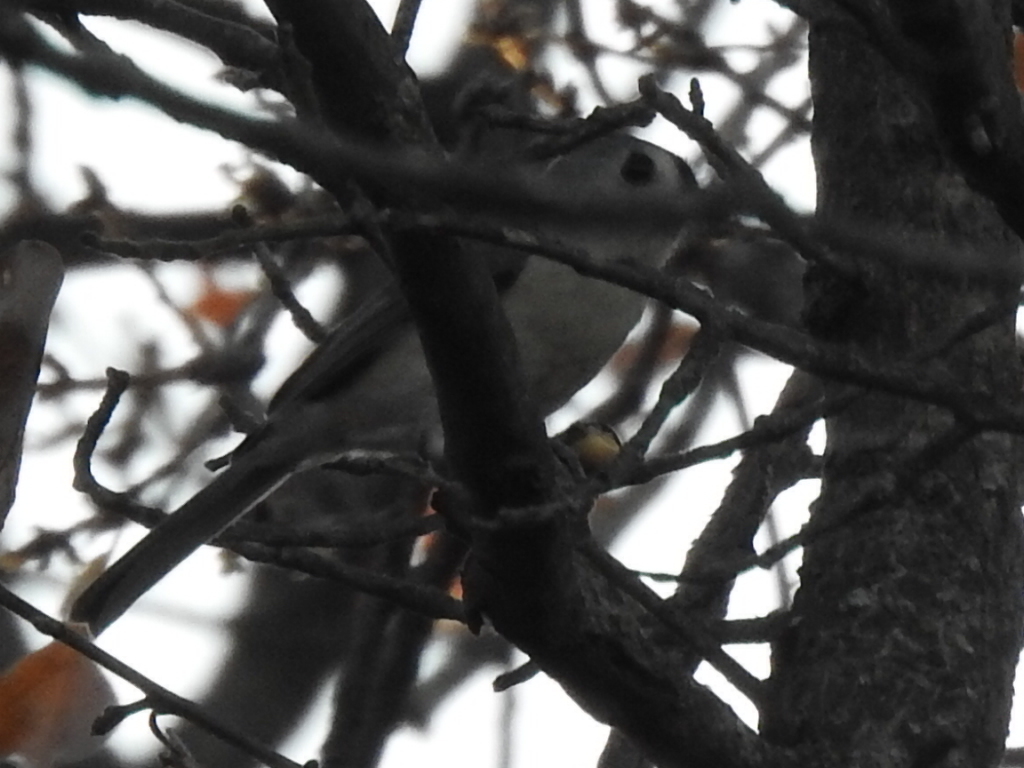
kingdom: Animalia
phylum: Chordata
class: Aves
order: Passeriformes
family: Paridae
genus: Baeolophus
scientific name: Baeolophus bicolor
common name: Tufted titmouse
